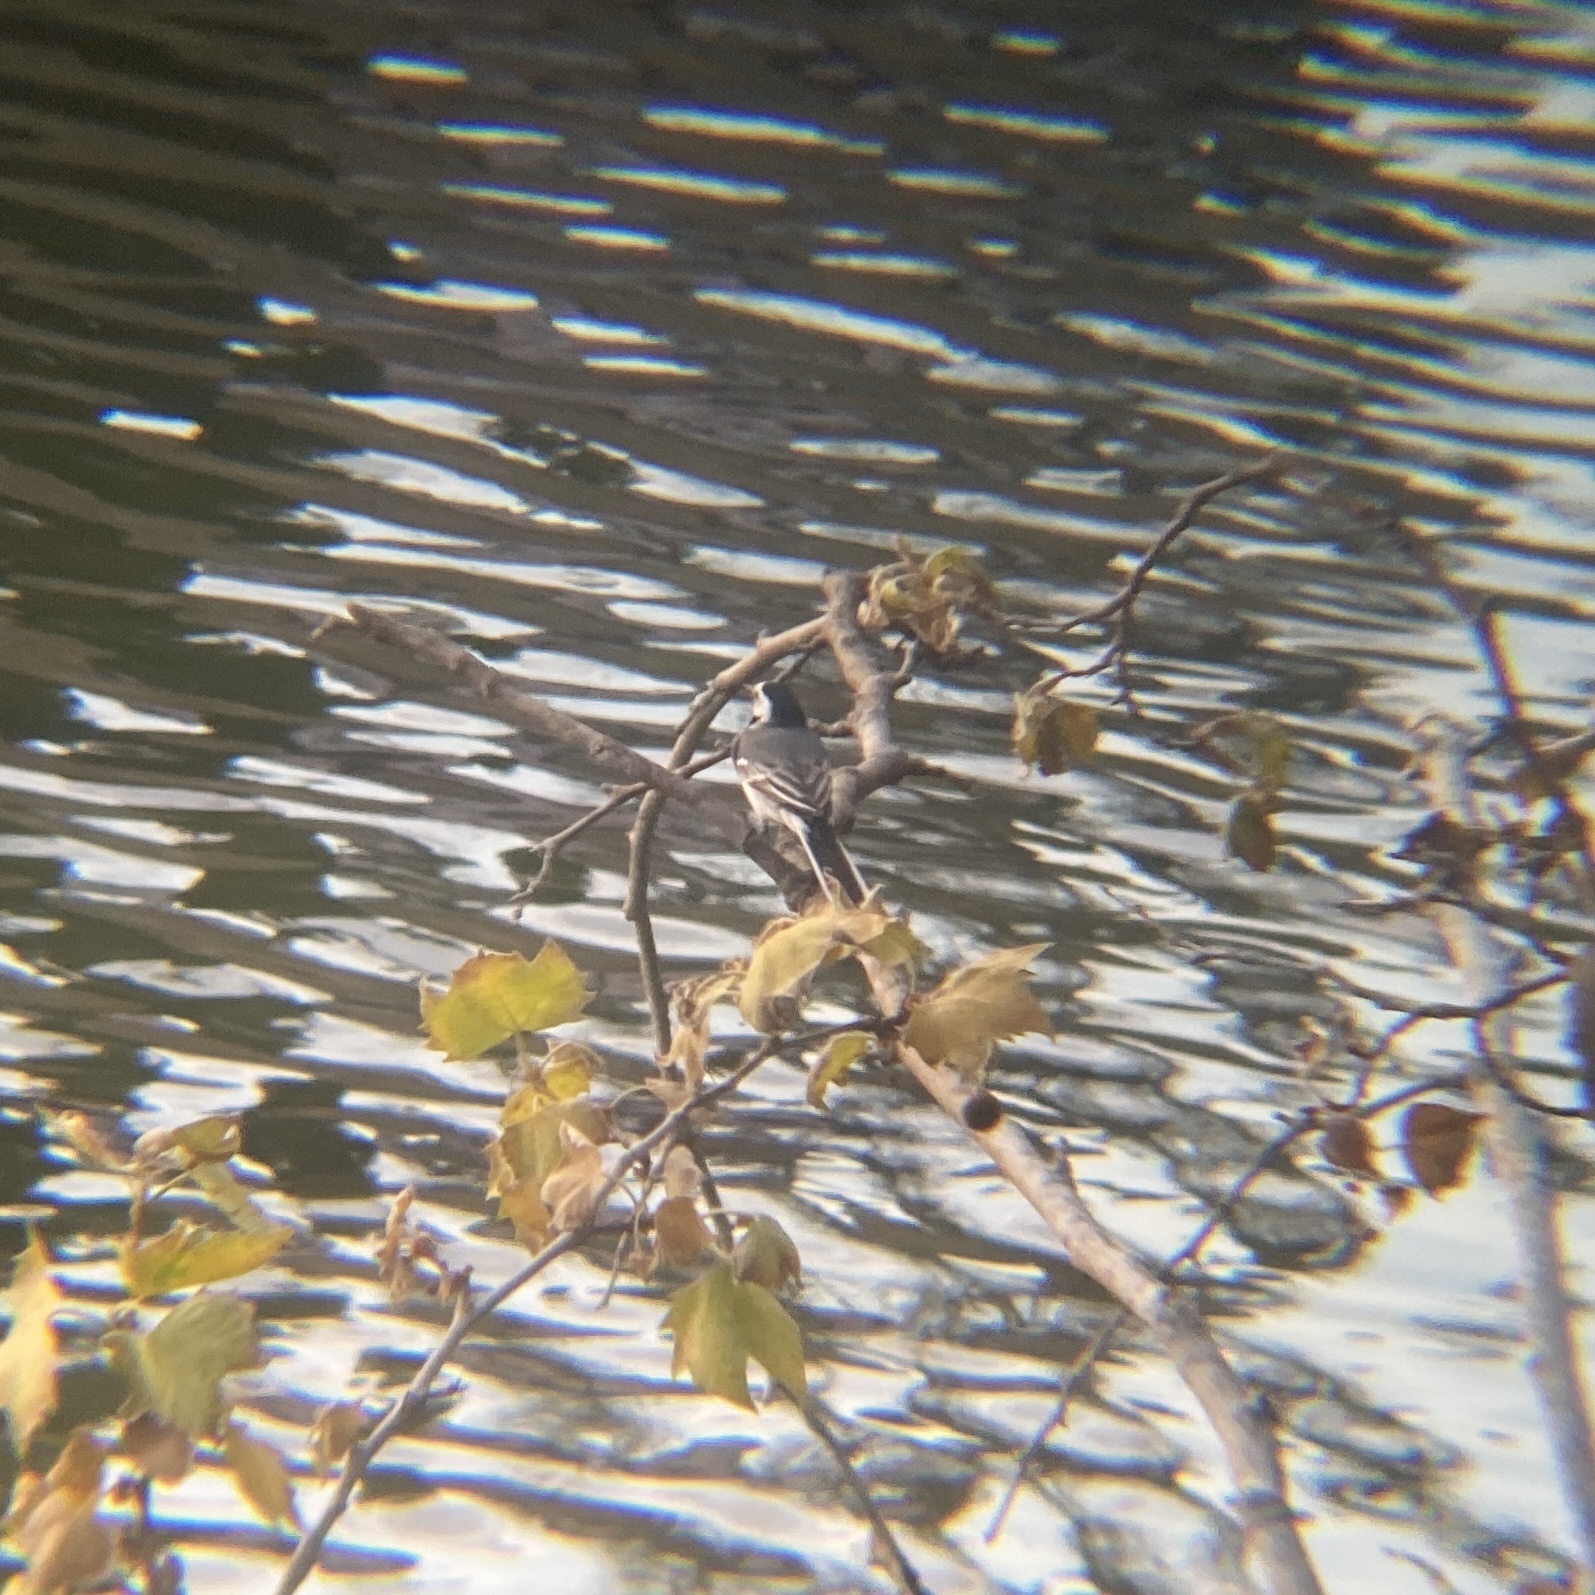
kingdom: Animalia
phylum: Chordata
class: Aves
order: Passeriformes
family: Motacillidae
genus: Motacilla
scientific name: Motacilla alba
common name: White wagtail
